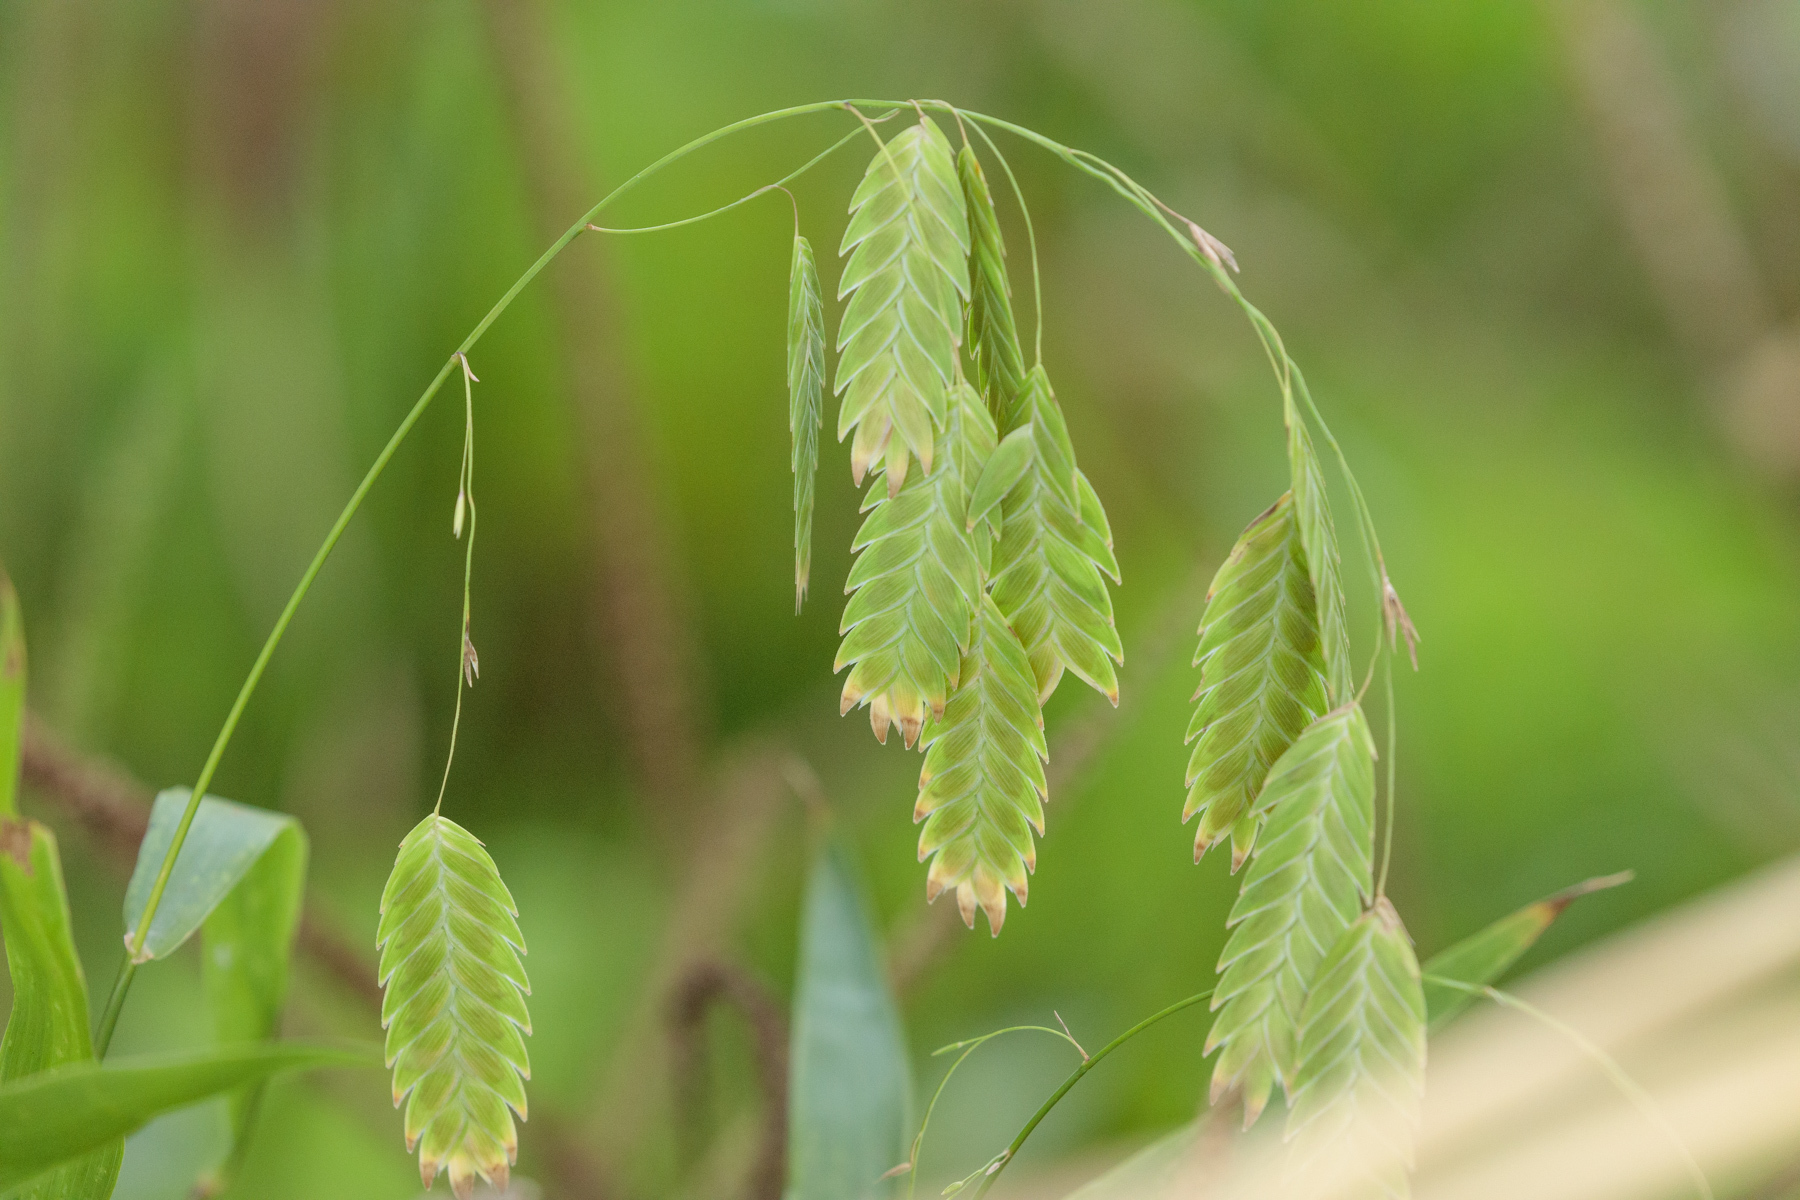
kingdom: Plantae
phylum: Tracheophyta
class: Liliopsida
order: Poales
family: Poaceae
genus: Chasmanthium
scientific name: Chasmanthium latifolium
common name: Broad-leaved chasmanthium
